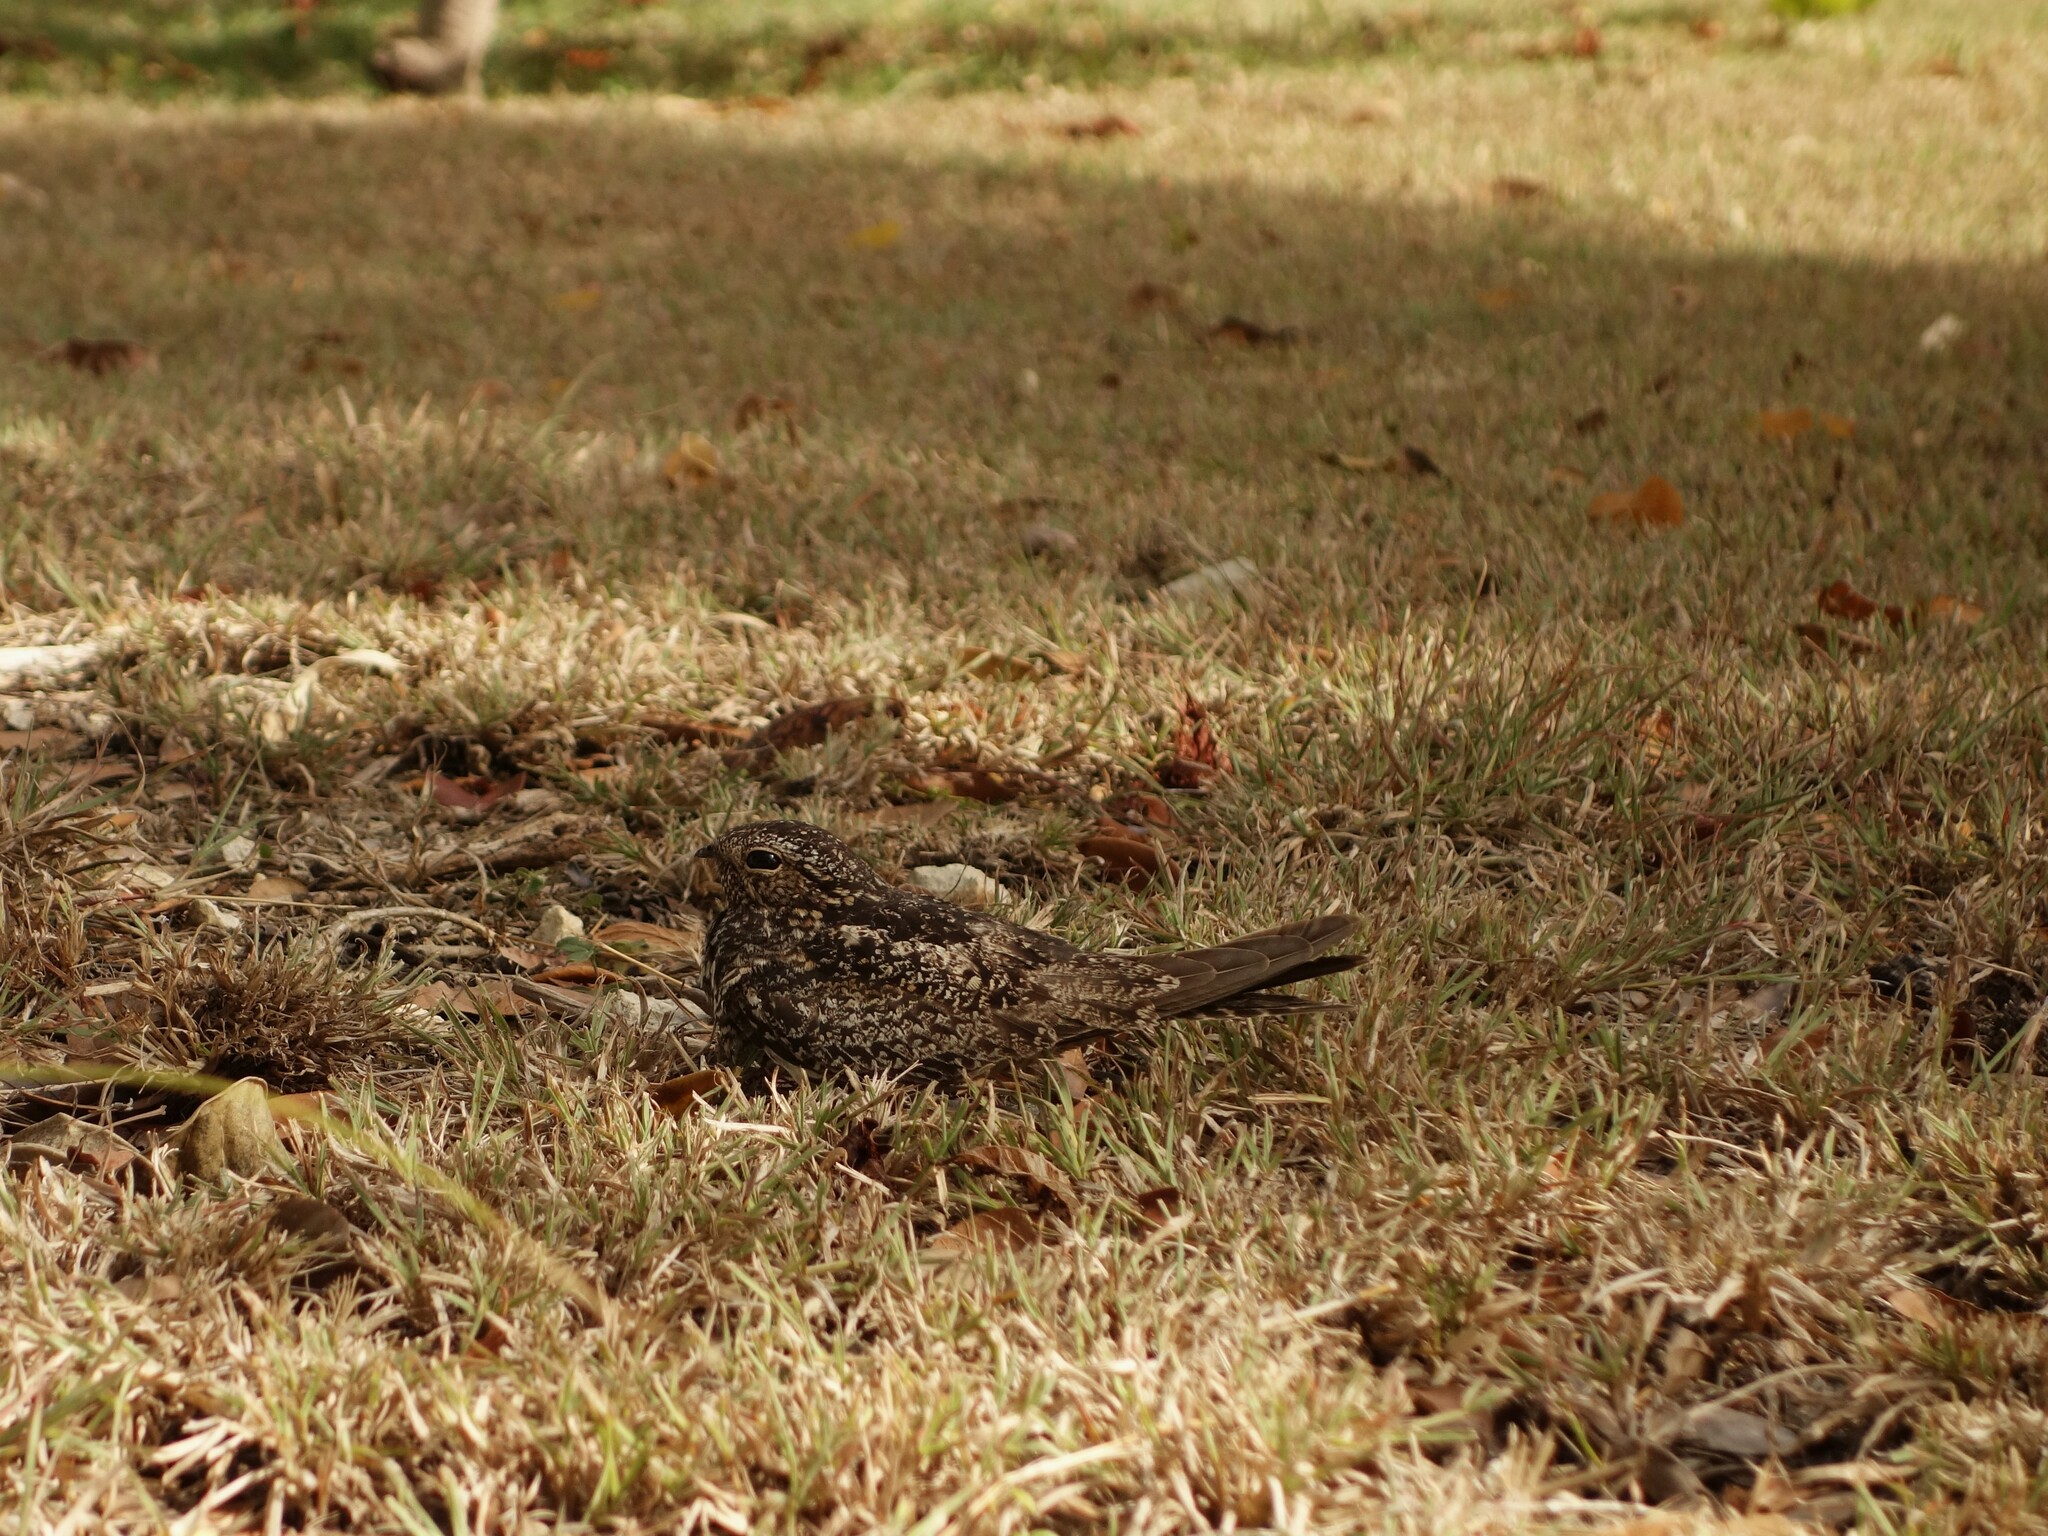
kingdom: Animalia
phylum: Chordata
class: Aves
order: Caprimulgiformes
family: Caprimulgidae
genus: Chordeiles
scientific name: Chordeiles gundlachii
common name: Antillean nighthawk
